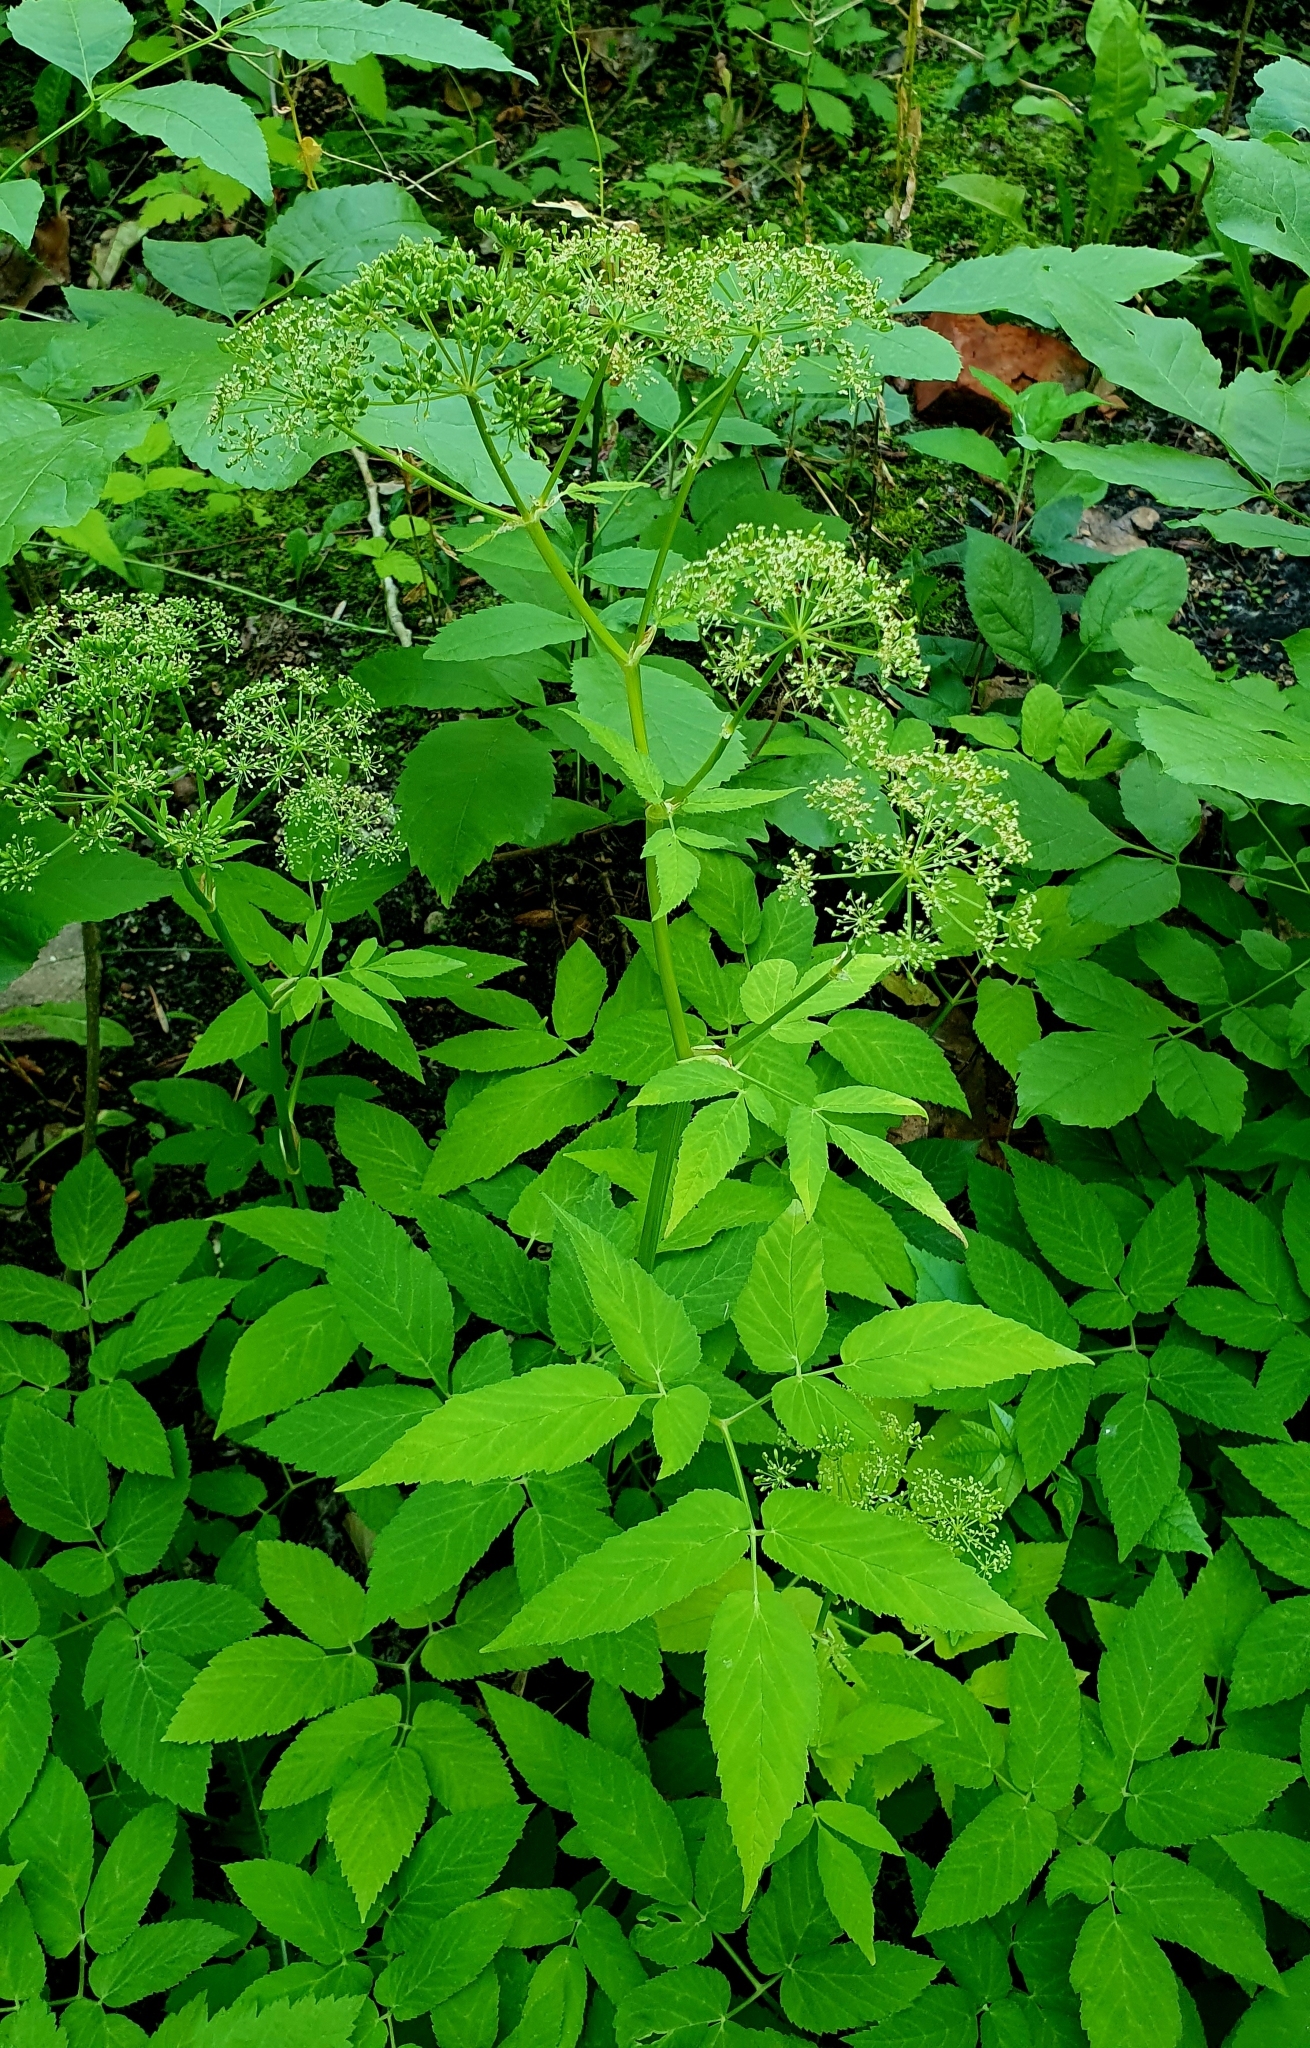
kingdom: Plantae
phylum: Tracheophyta
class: Magnoliopsida
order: Apiales
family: Apiaceae
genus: Aegopodium
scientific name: Aegopodium podagraria
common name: Ground-elder
